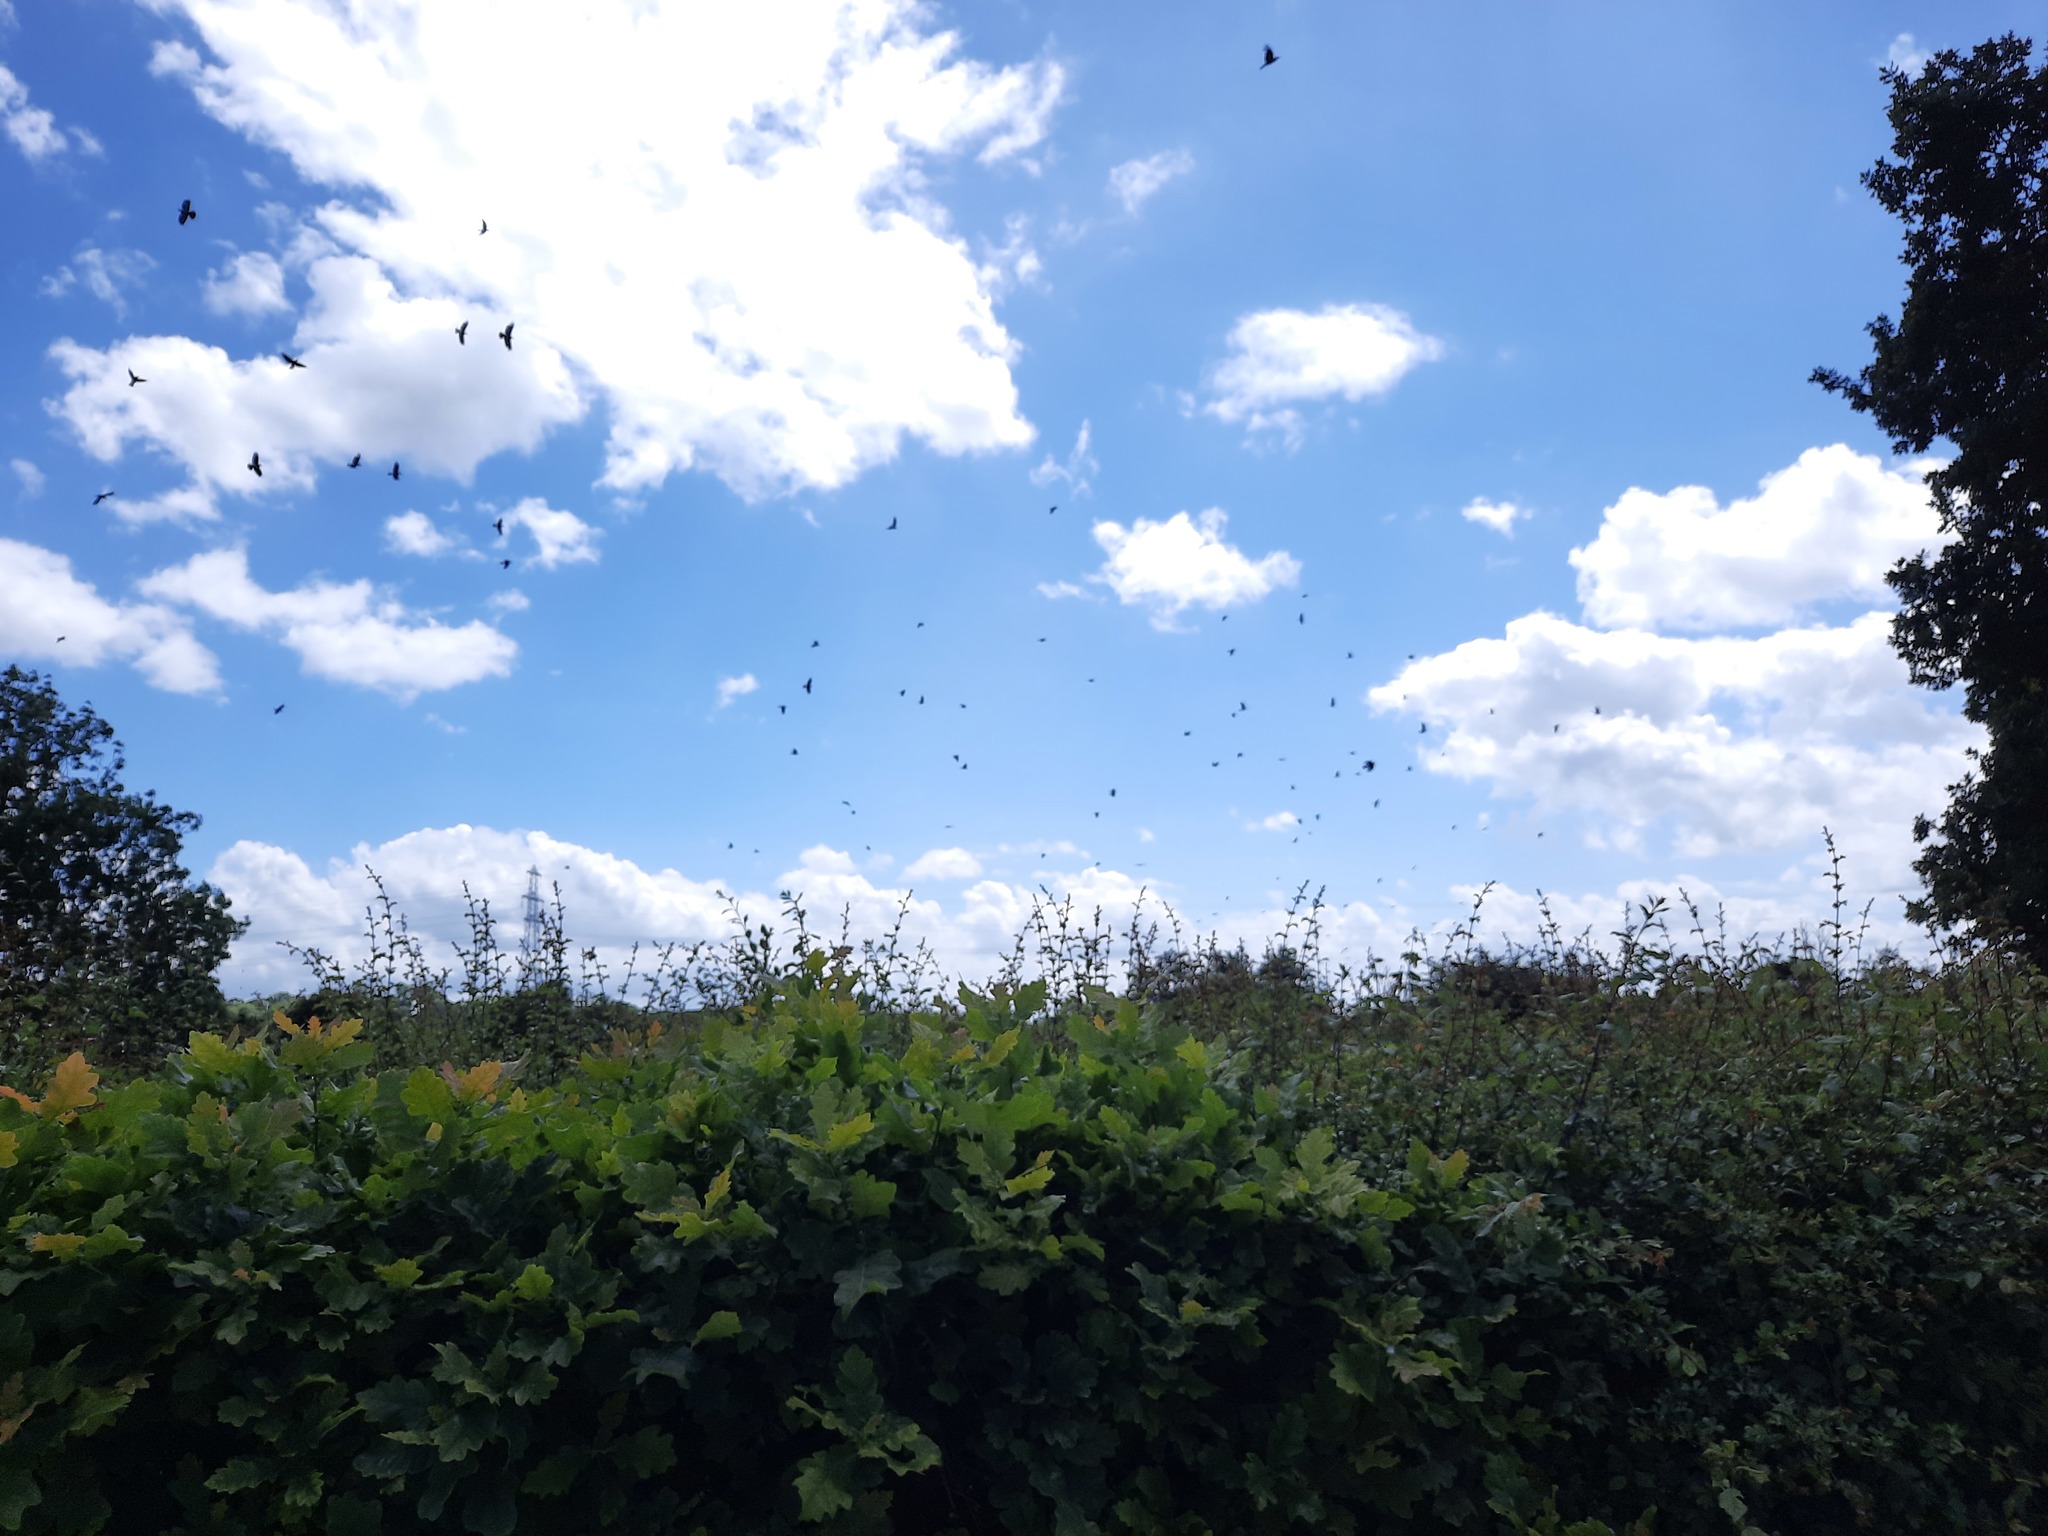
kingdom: Animalia
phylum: Chordata
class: Aves
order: Passeriformes
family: Corvidae
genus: Corvus
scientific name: Corvus corone
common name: Carrion crow
